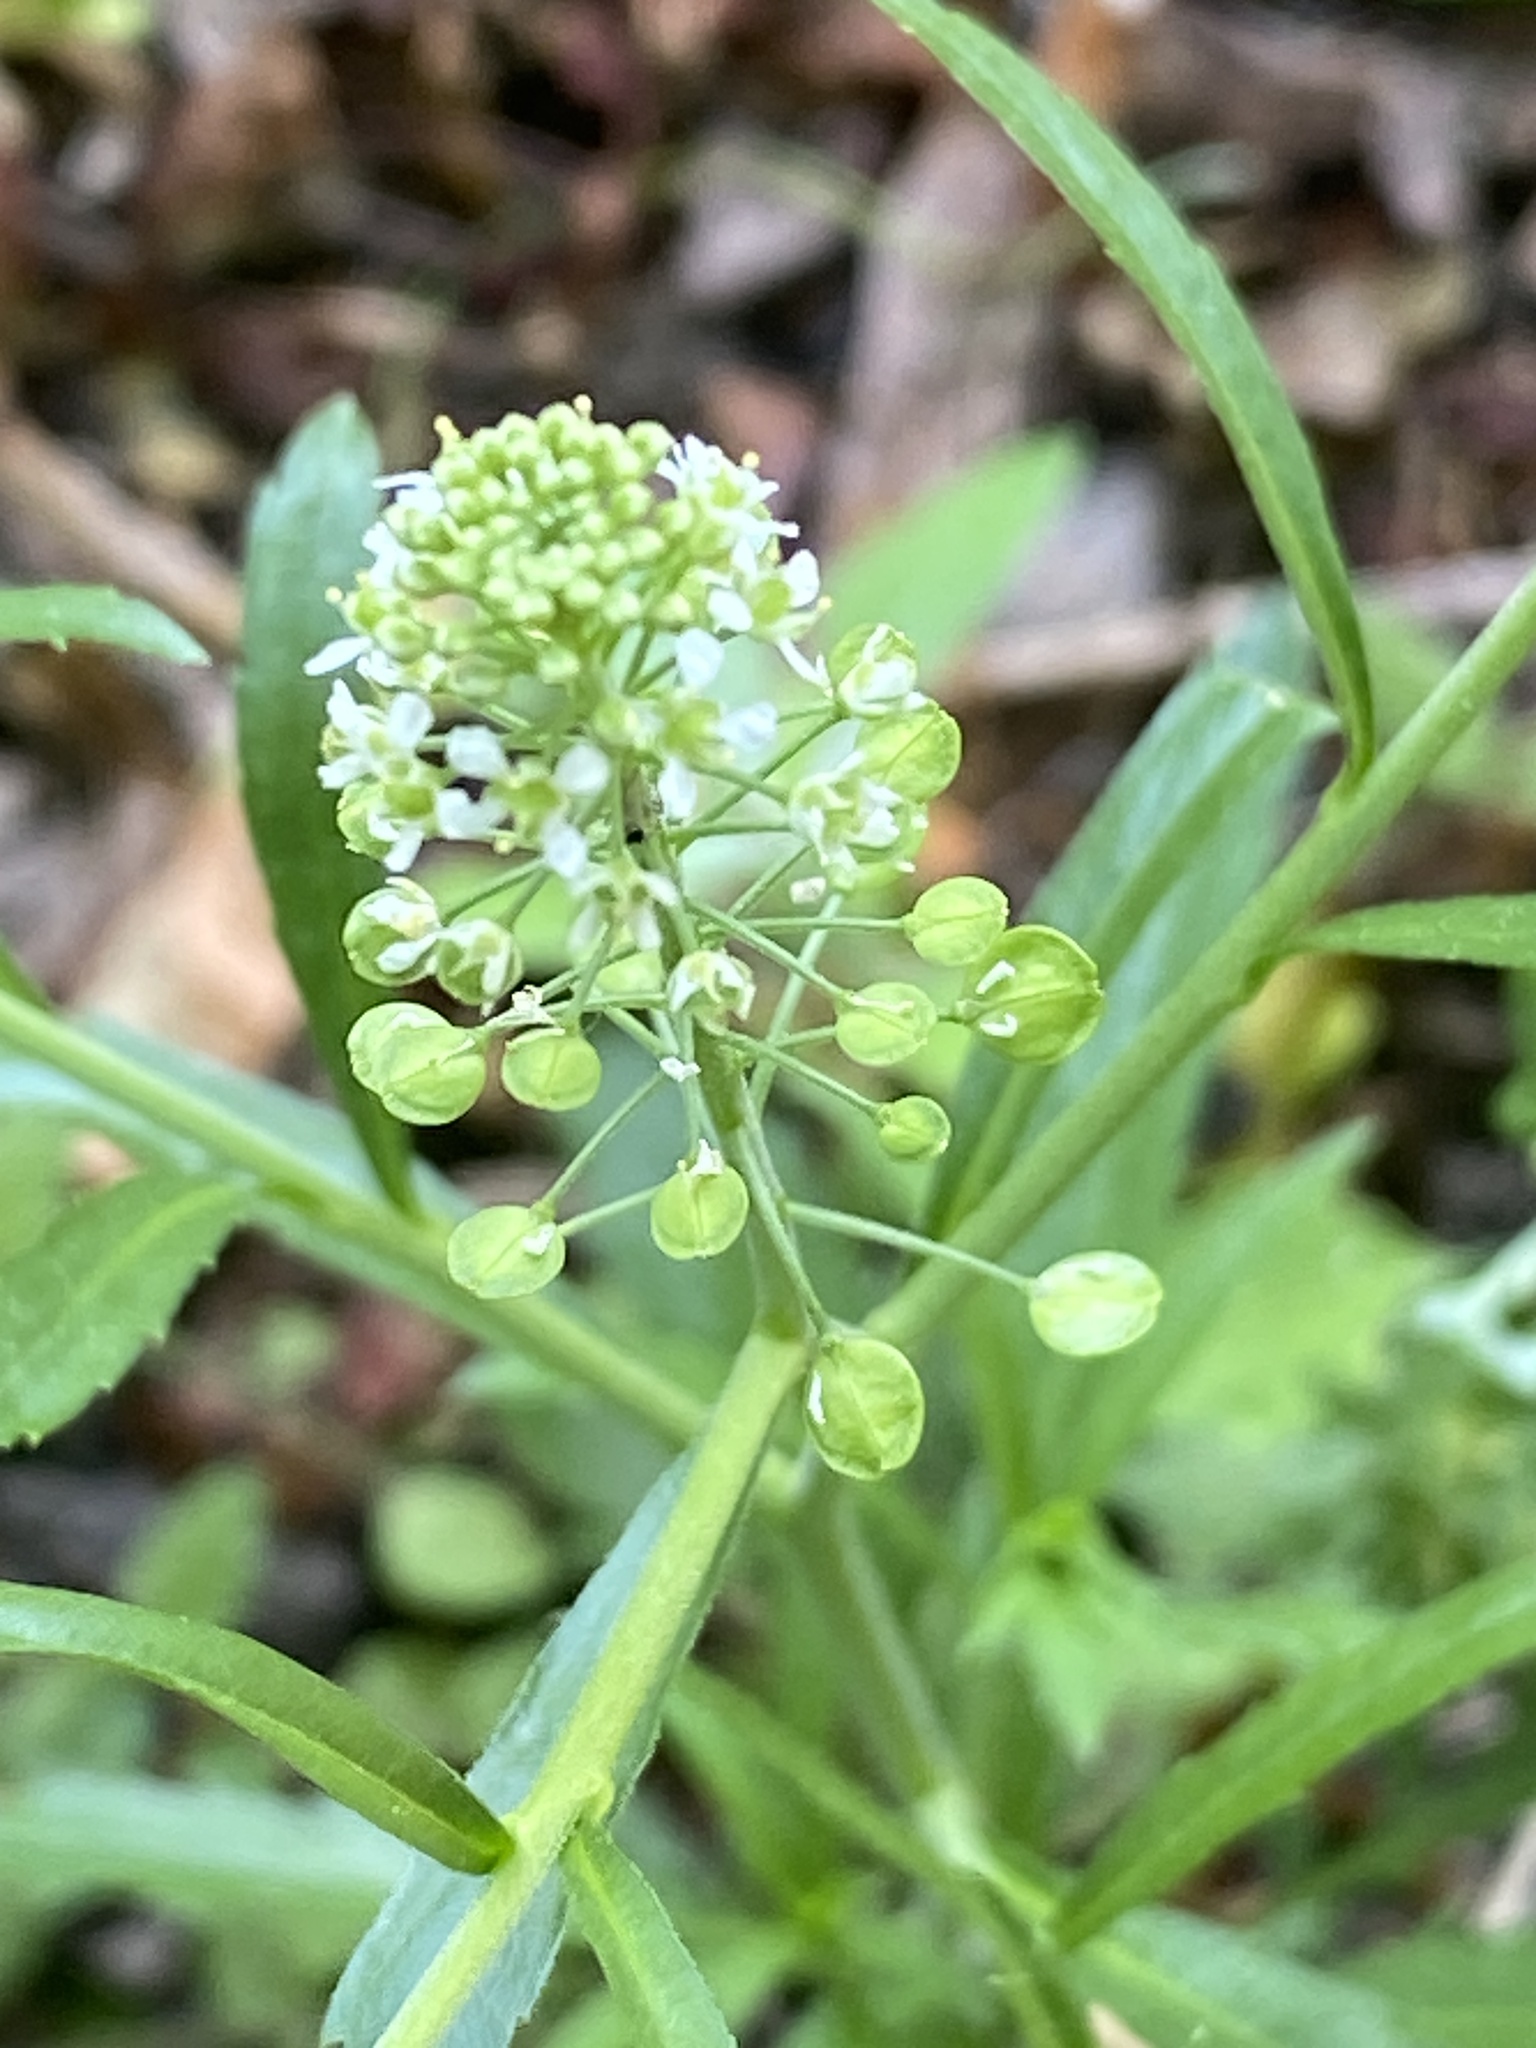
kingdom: Plantae
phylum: Tracheophyta
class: Magnoliopsida
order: Brassicales
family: Brassicaceae
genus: Lepidium
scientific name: Lepidium virginicum
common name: Least pepperwort
